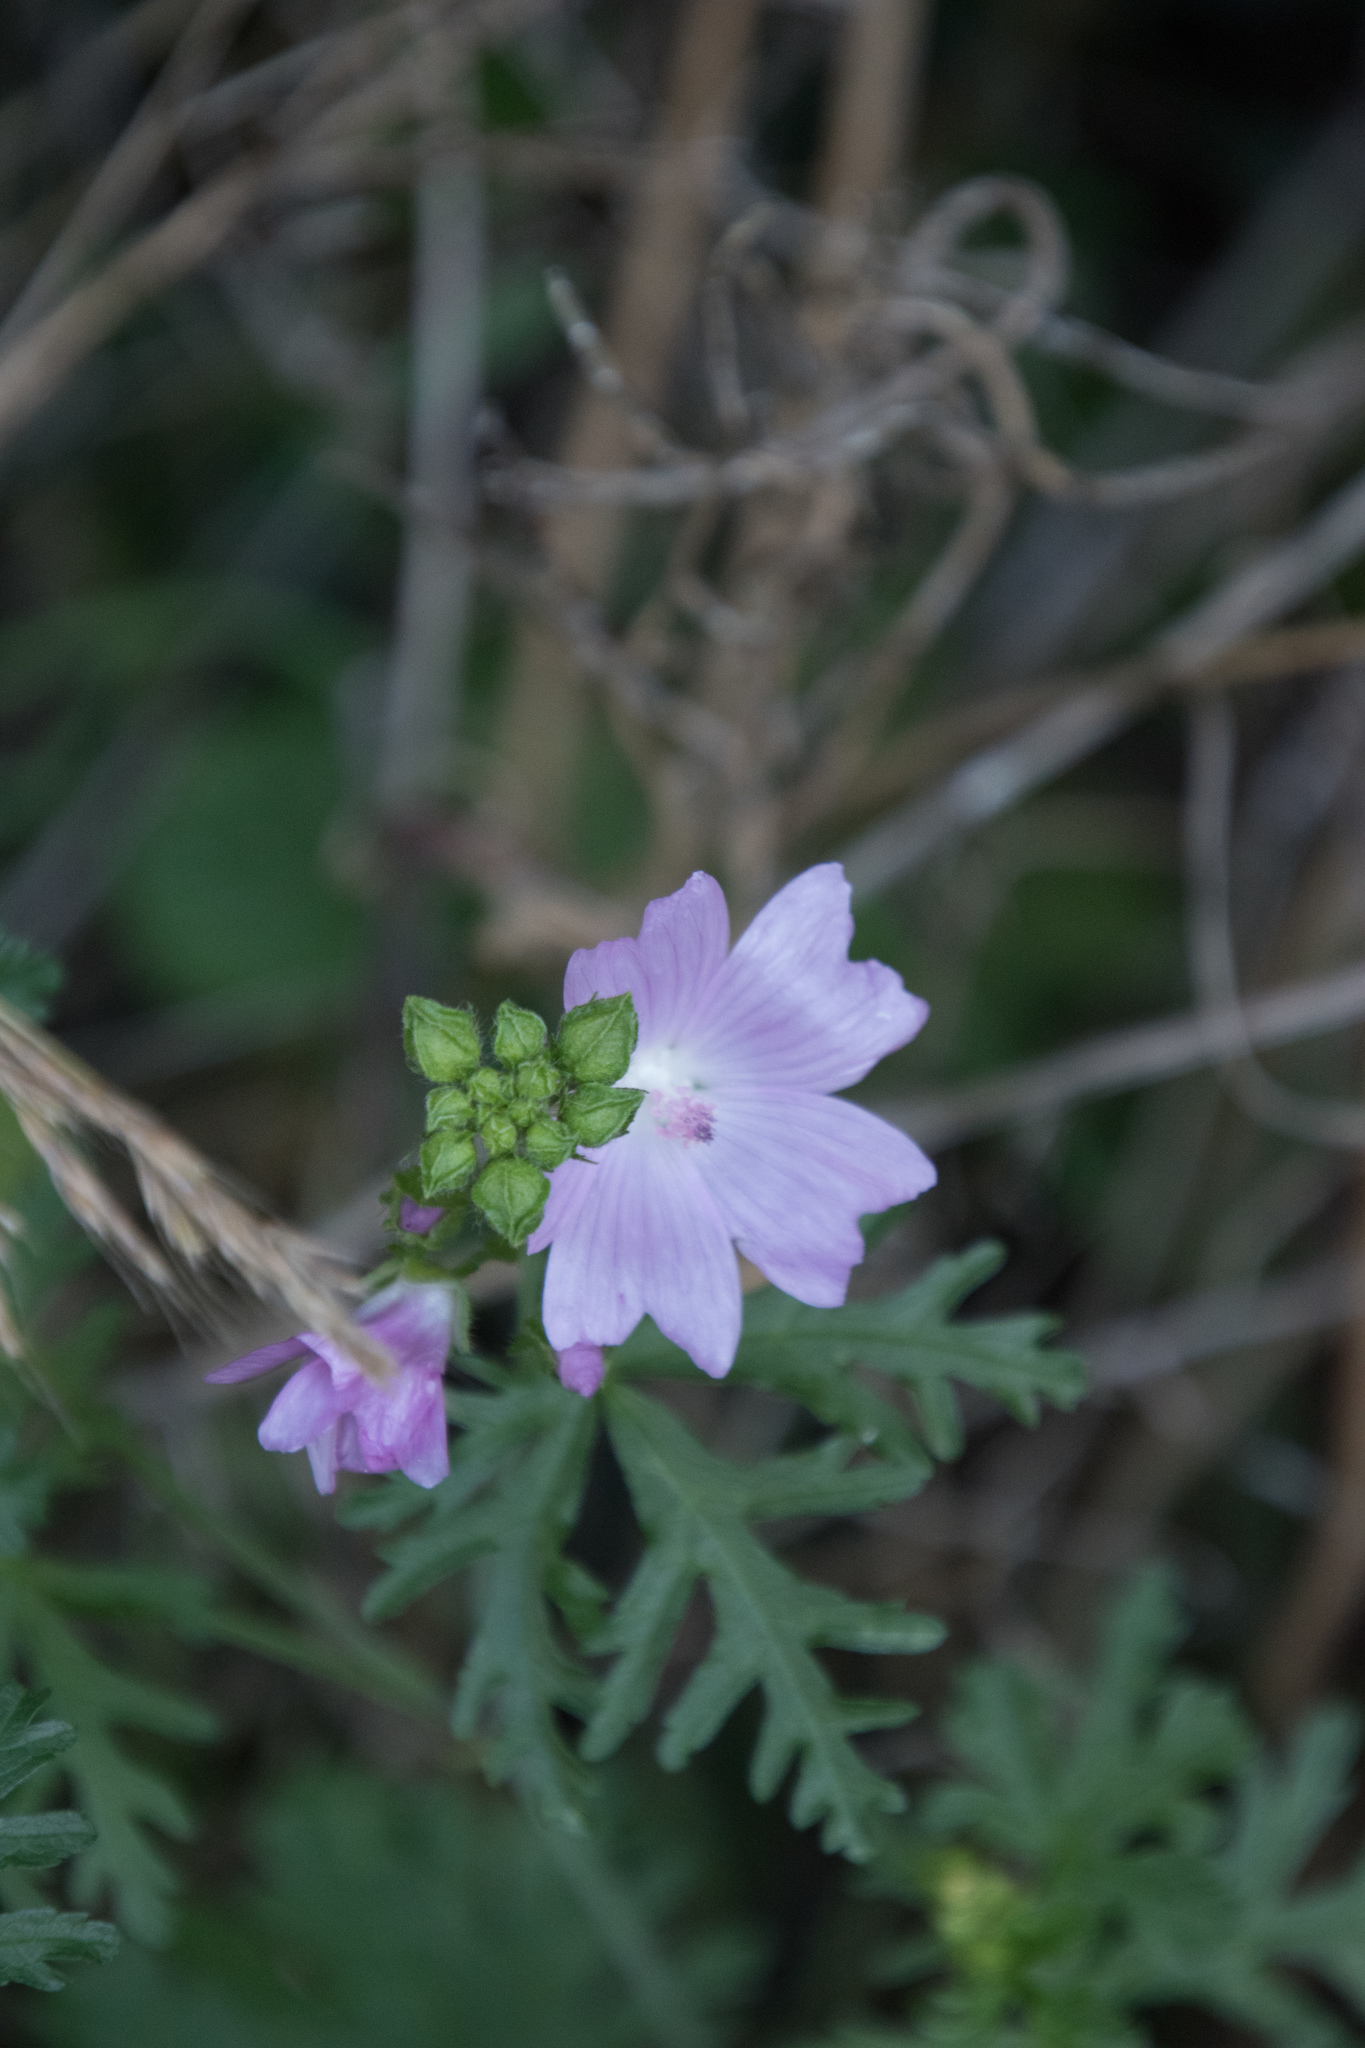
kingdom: Plantae
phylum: Tracheophyta
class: Magnoliopsida
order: Malvales
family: Malvaceae
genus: Malva
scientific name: Malva moschata
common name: Musk mallow
